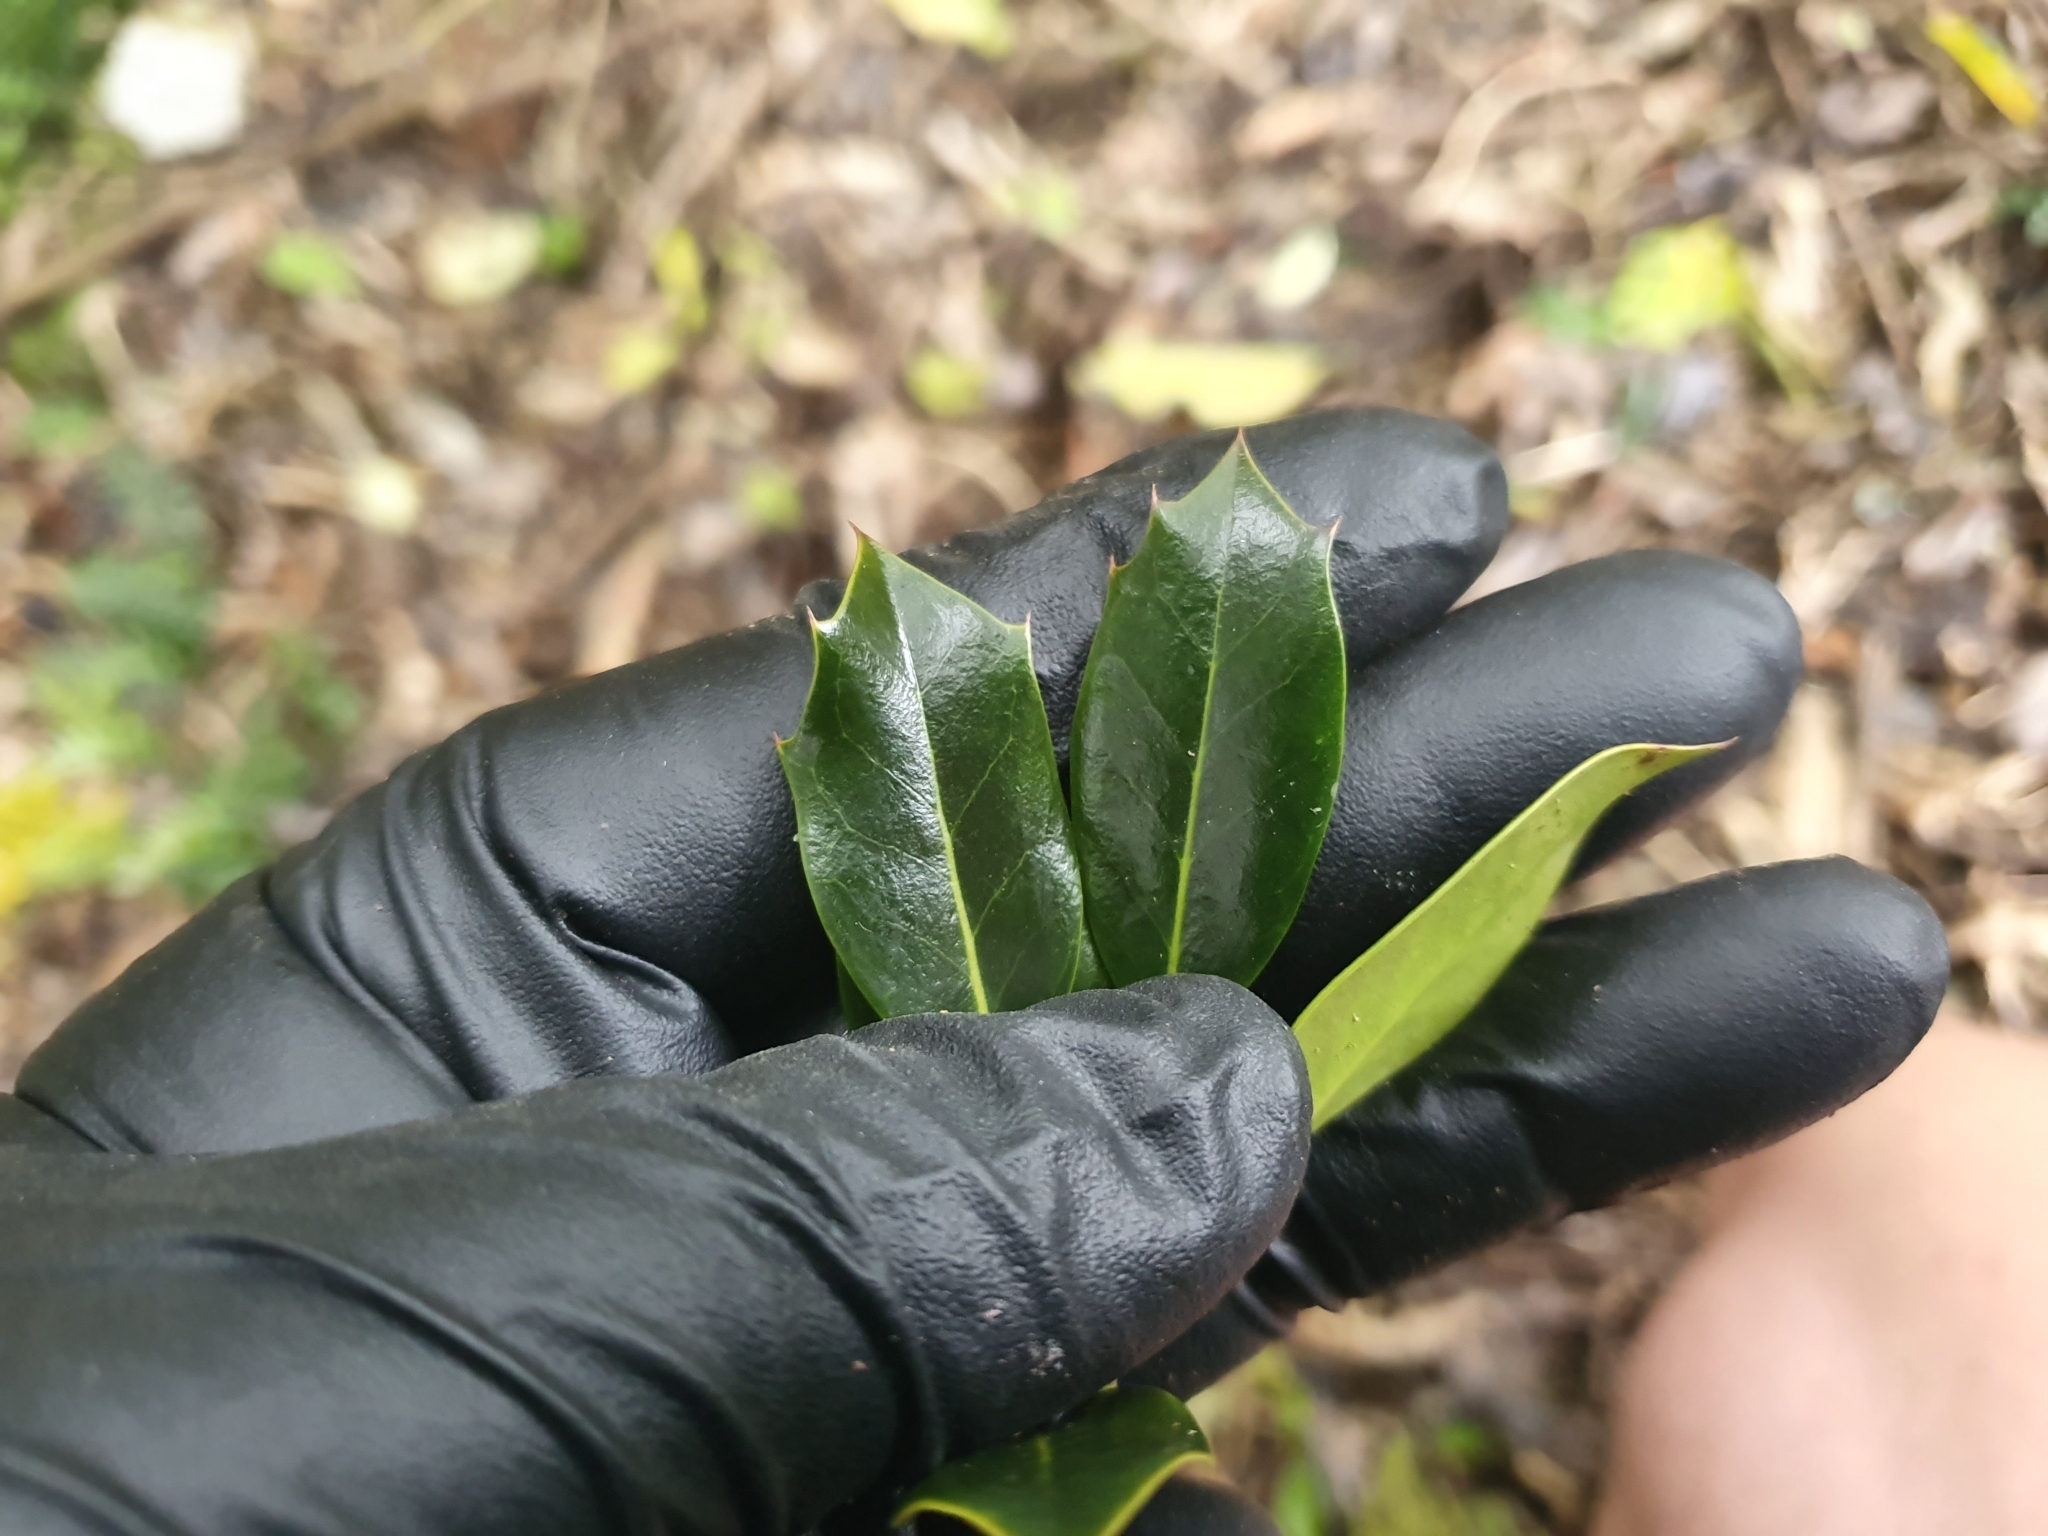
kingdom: Plantae
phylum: Tracheophyta
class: Magnoliopsida
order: Aquifoliales
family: Aquifoliaceae
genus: Ilex
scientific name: Ilex aquifolium
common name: English holly
